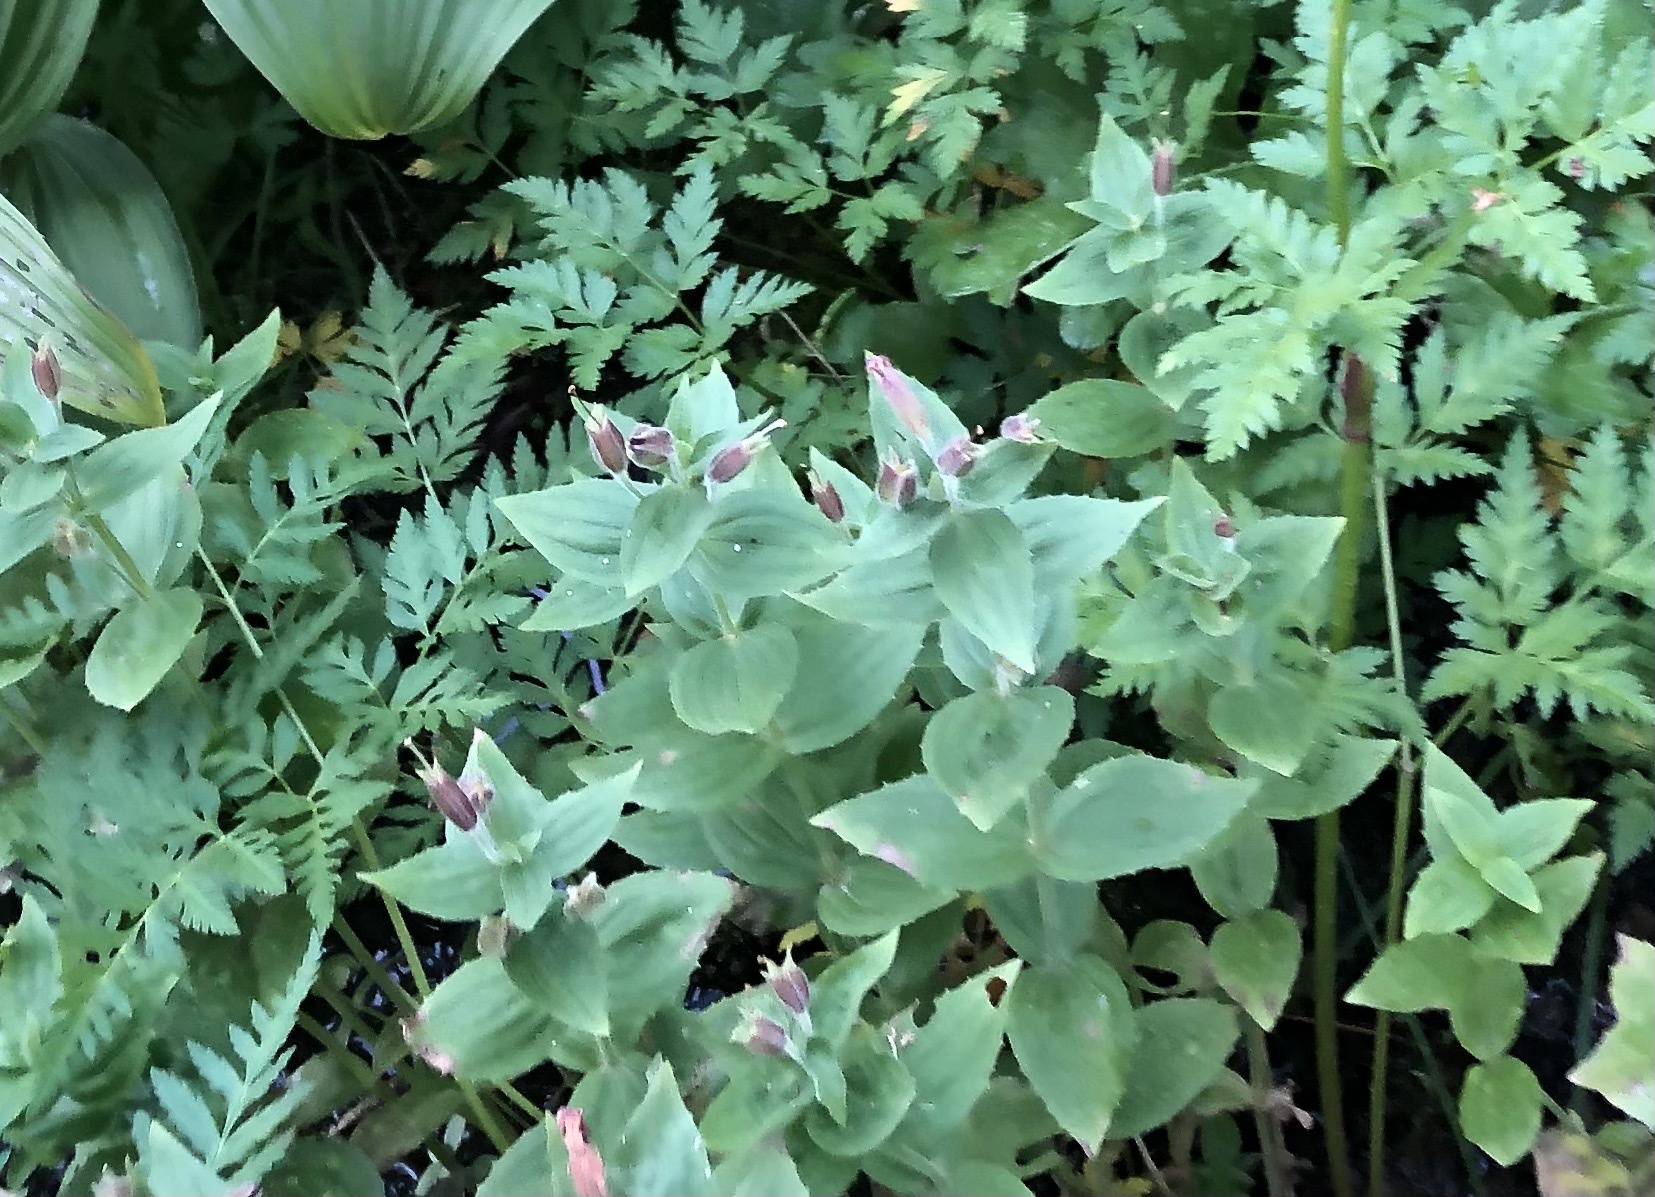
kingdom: Plantae
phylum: Tracheophyta
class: Magnoliopsida
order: Lamiales
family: Phrymaceae
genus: Erythranthe
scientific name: Erythranthe lewisii
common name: Lewis's monkey-flower
